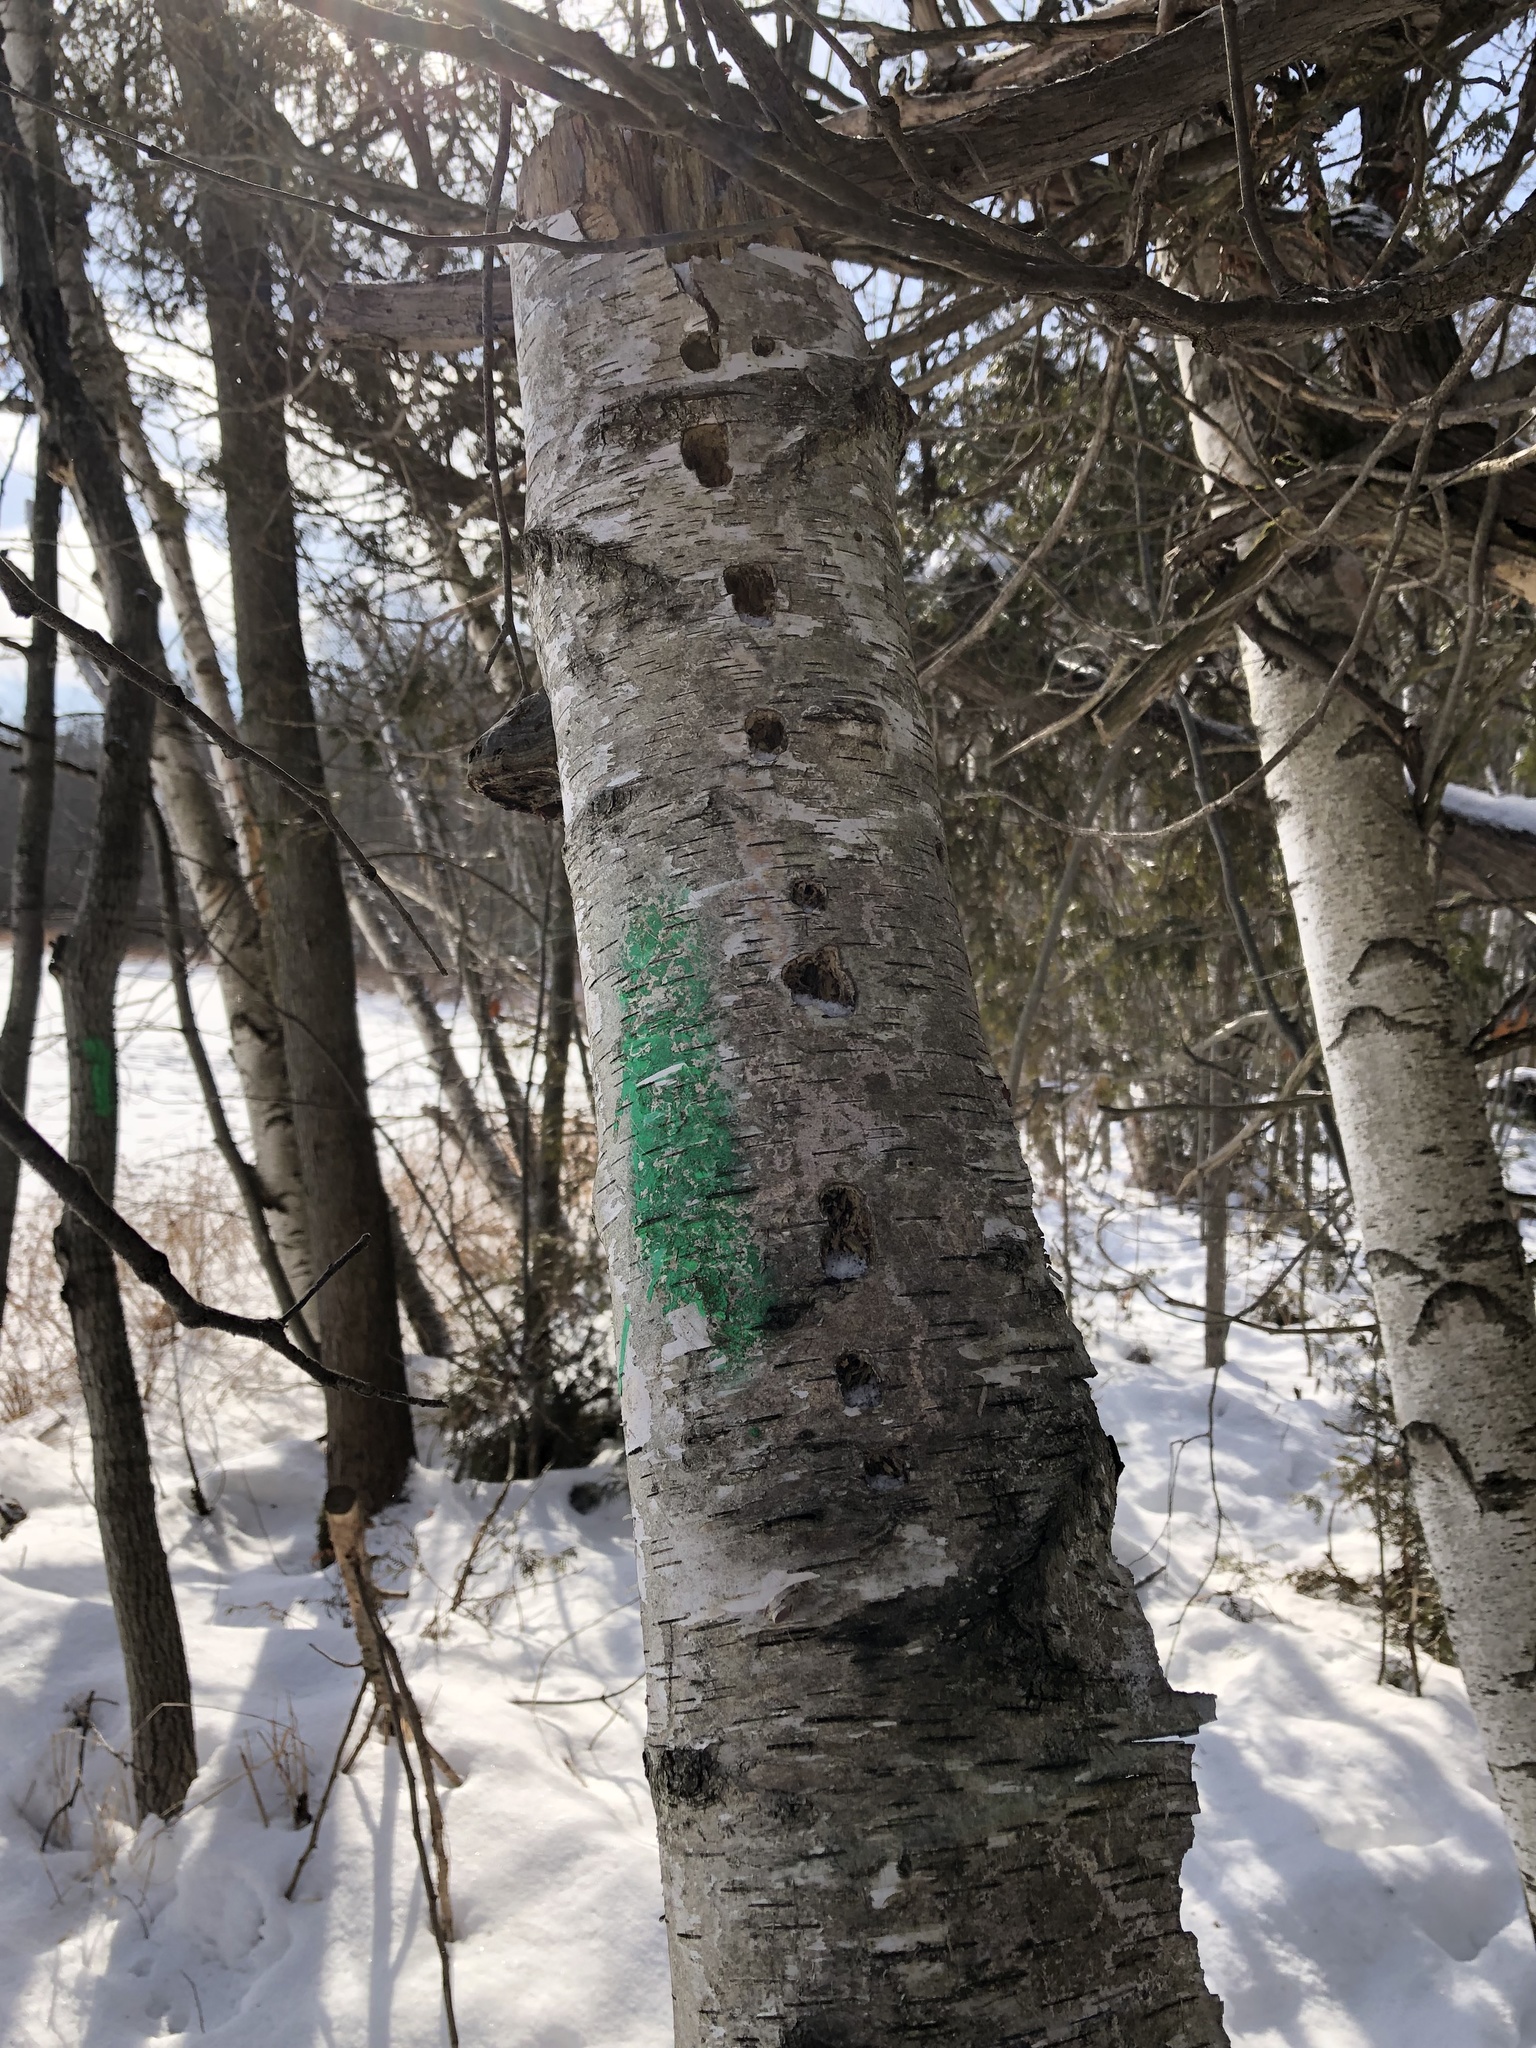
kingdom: Plantae
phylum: Tracheophyta
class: Magnoliopsida
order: Fagales
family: Betulaceae
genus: Betula
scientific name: Betula papyrifera
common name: Paper birch
